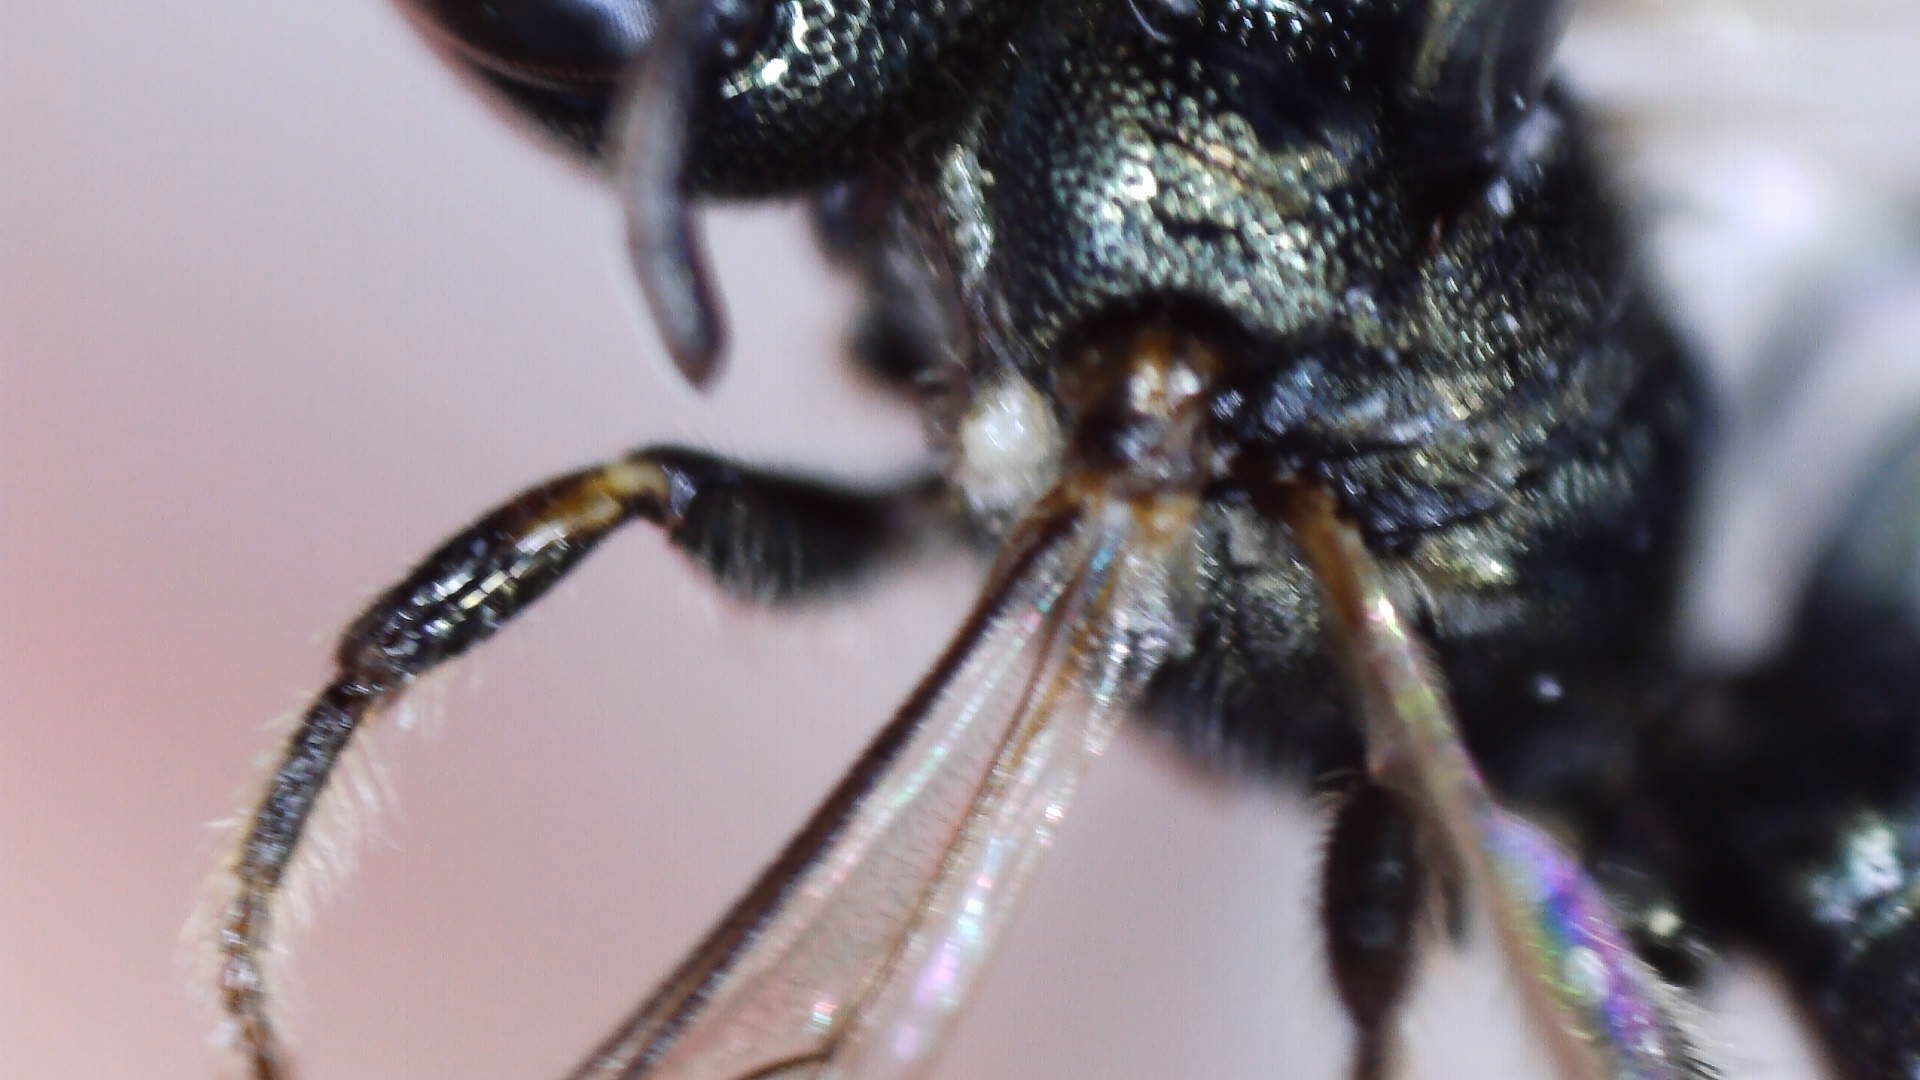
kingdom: Animalia
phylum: Arthropoda
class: Insecta
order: Hymenoptera
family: Apidae
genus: Zadontomerus
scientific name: Zadontomerus
